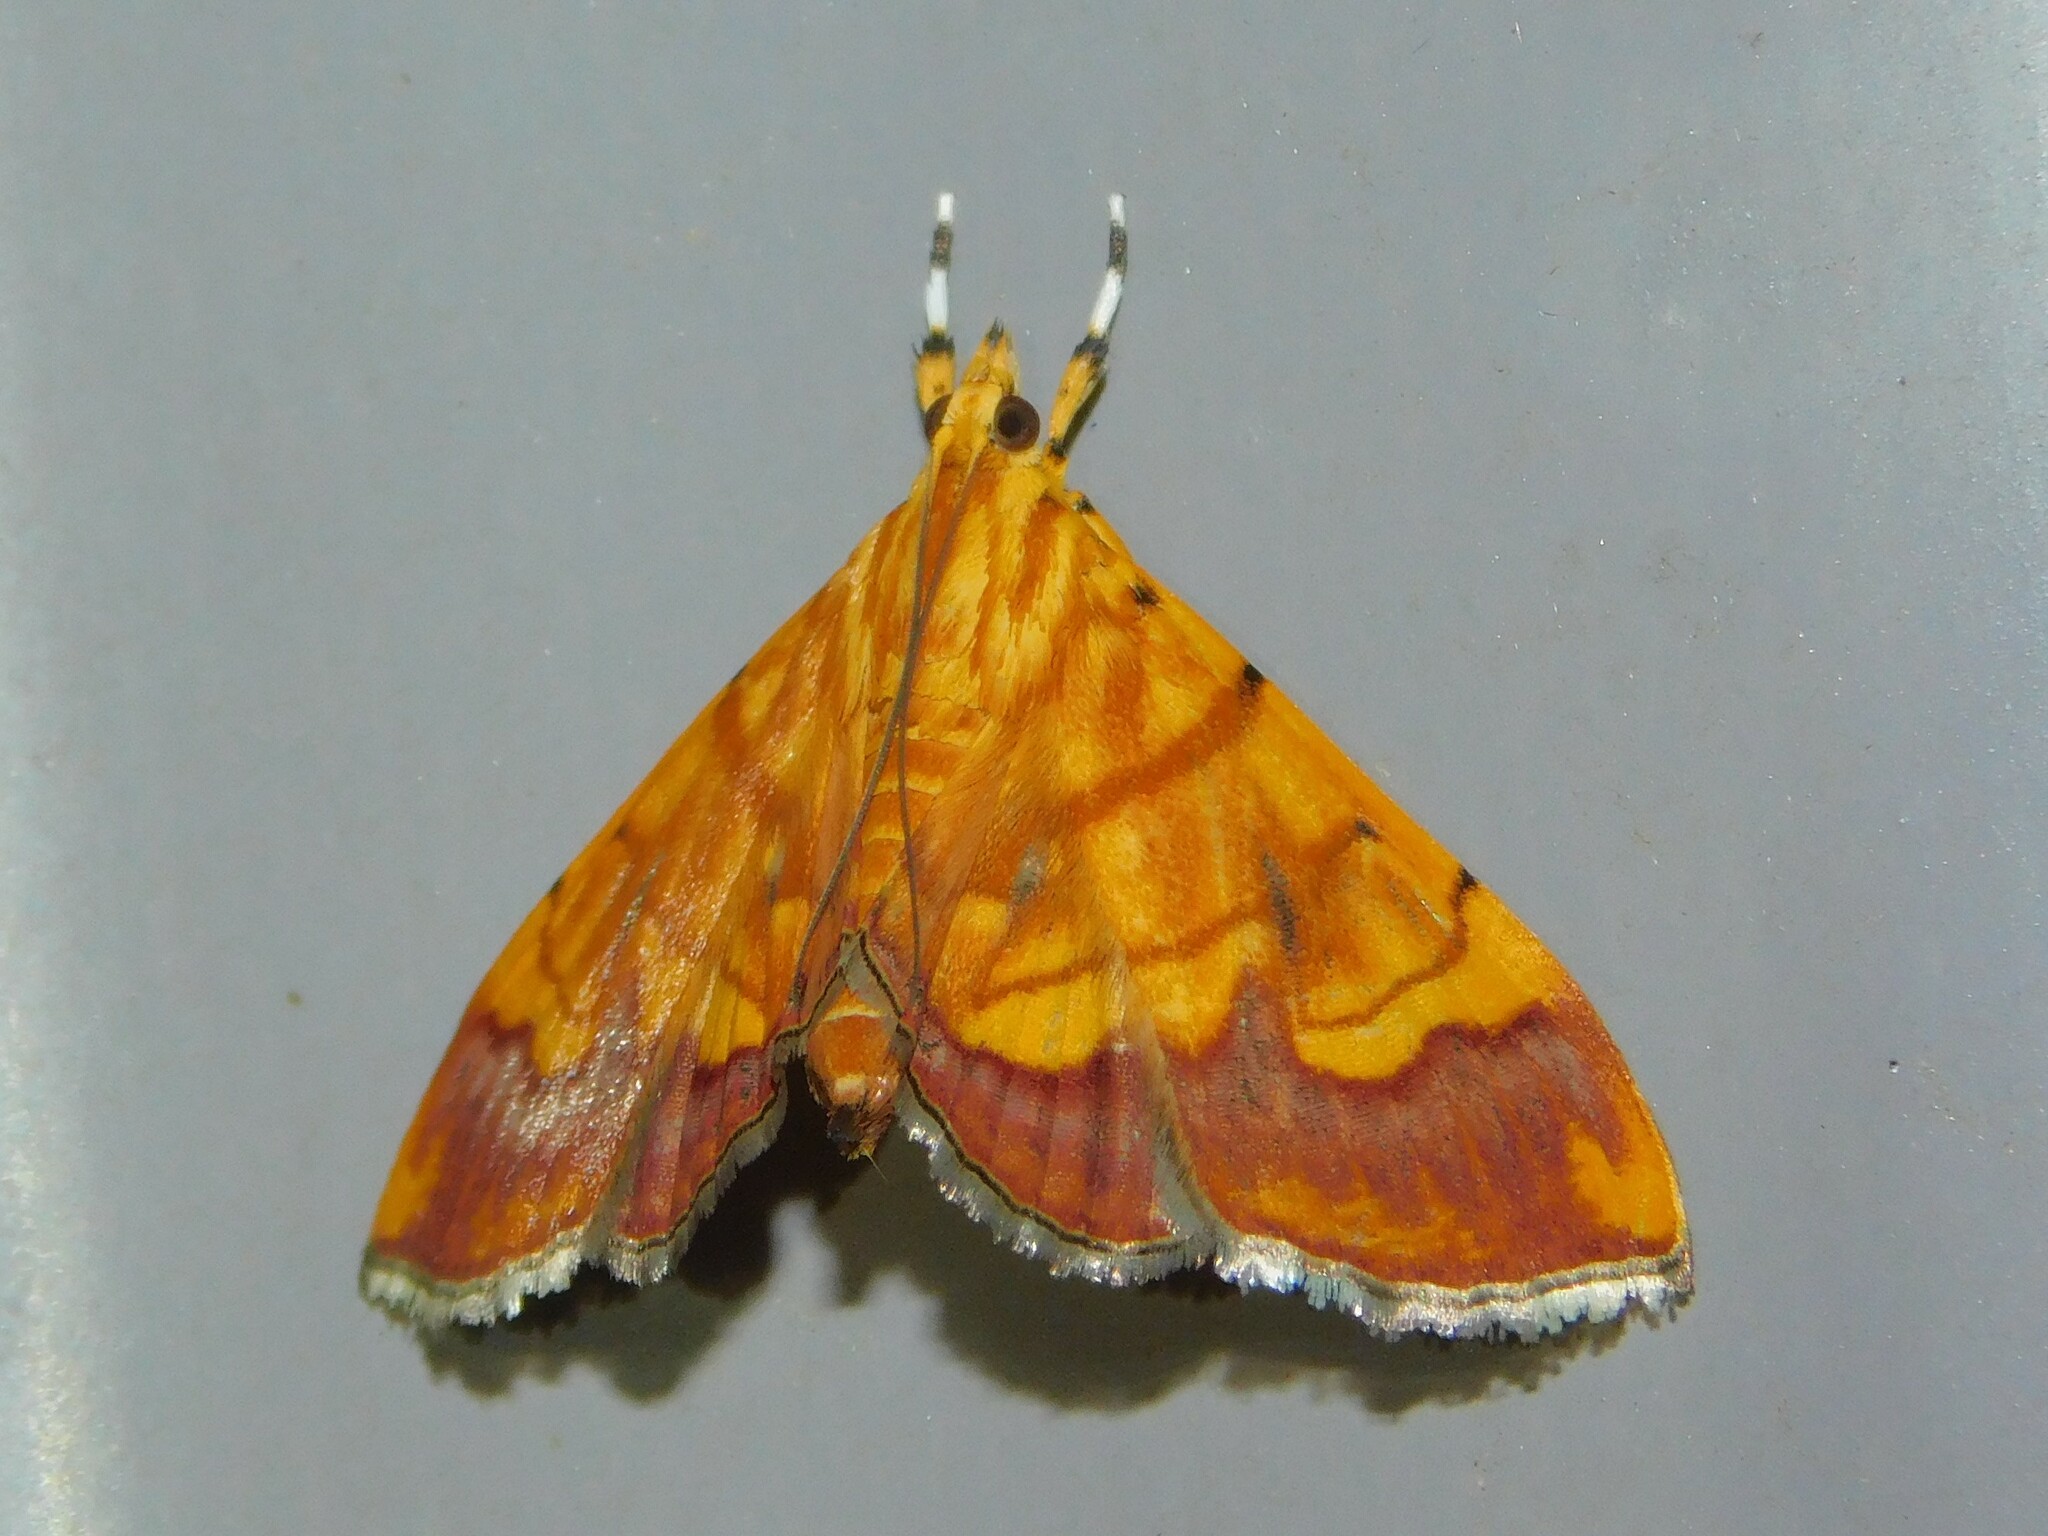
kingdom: Animalia
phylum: Arthropoda
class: Insecta
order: Lepidoptera
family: Crambidae
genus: Cryptosara
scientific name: Cryptosara caritalis
